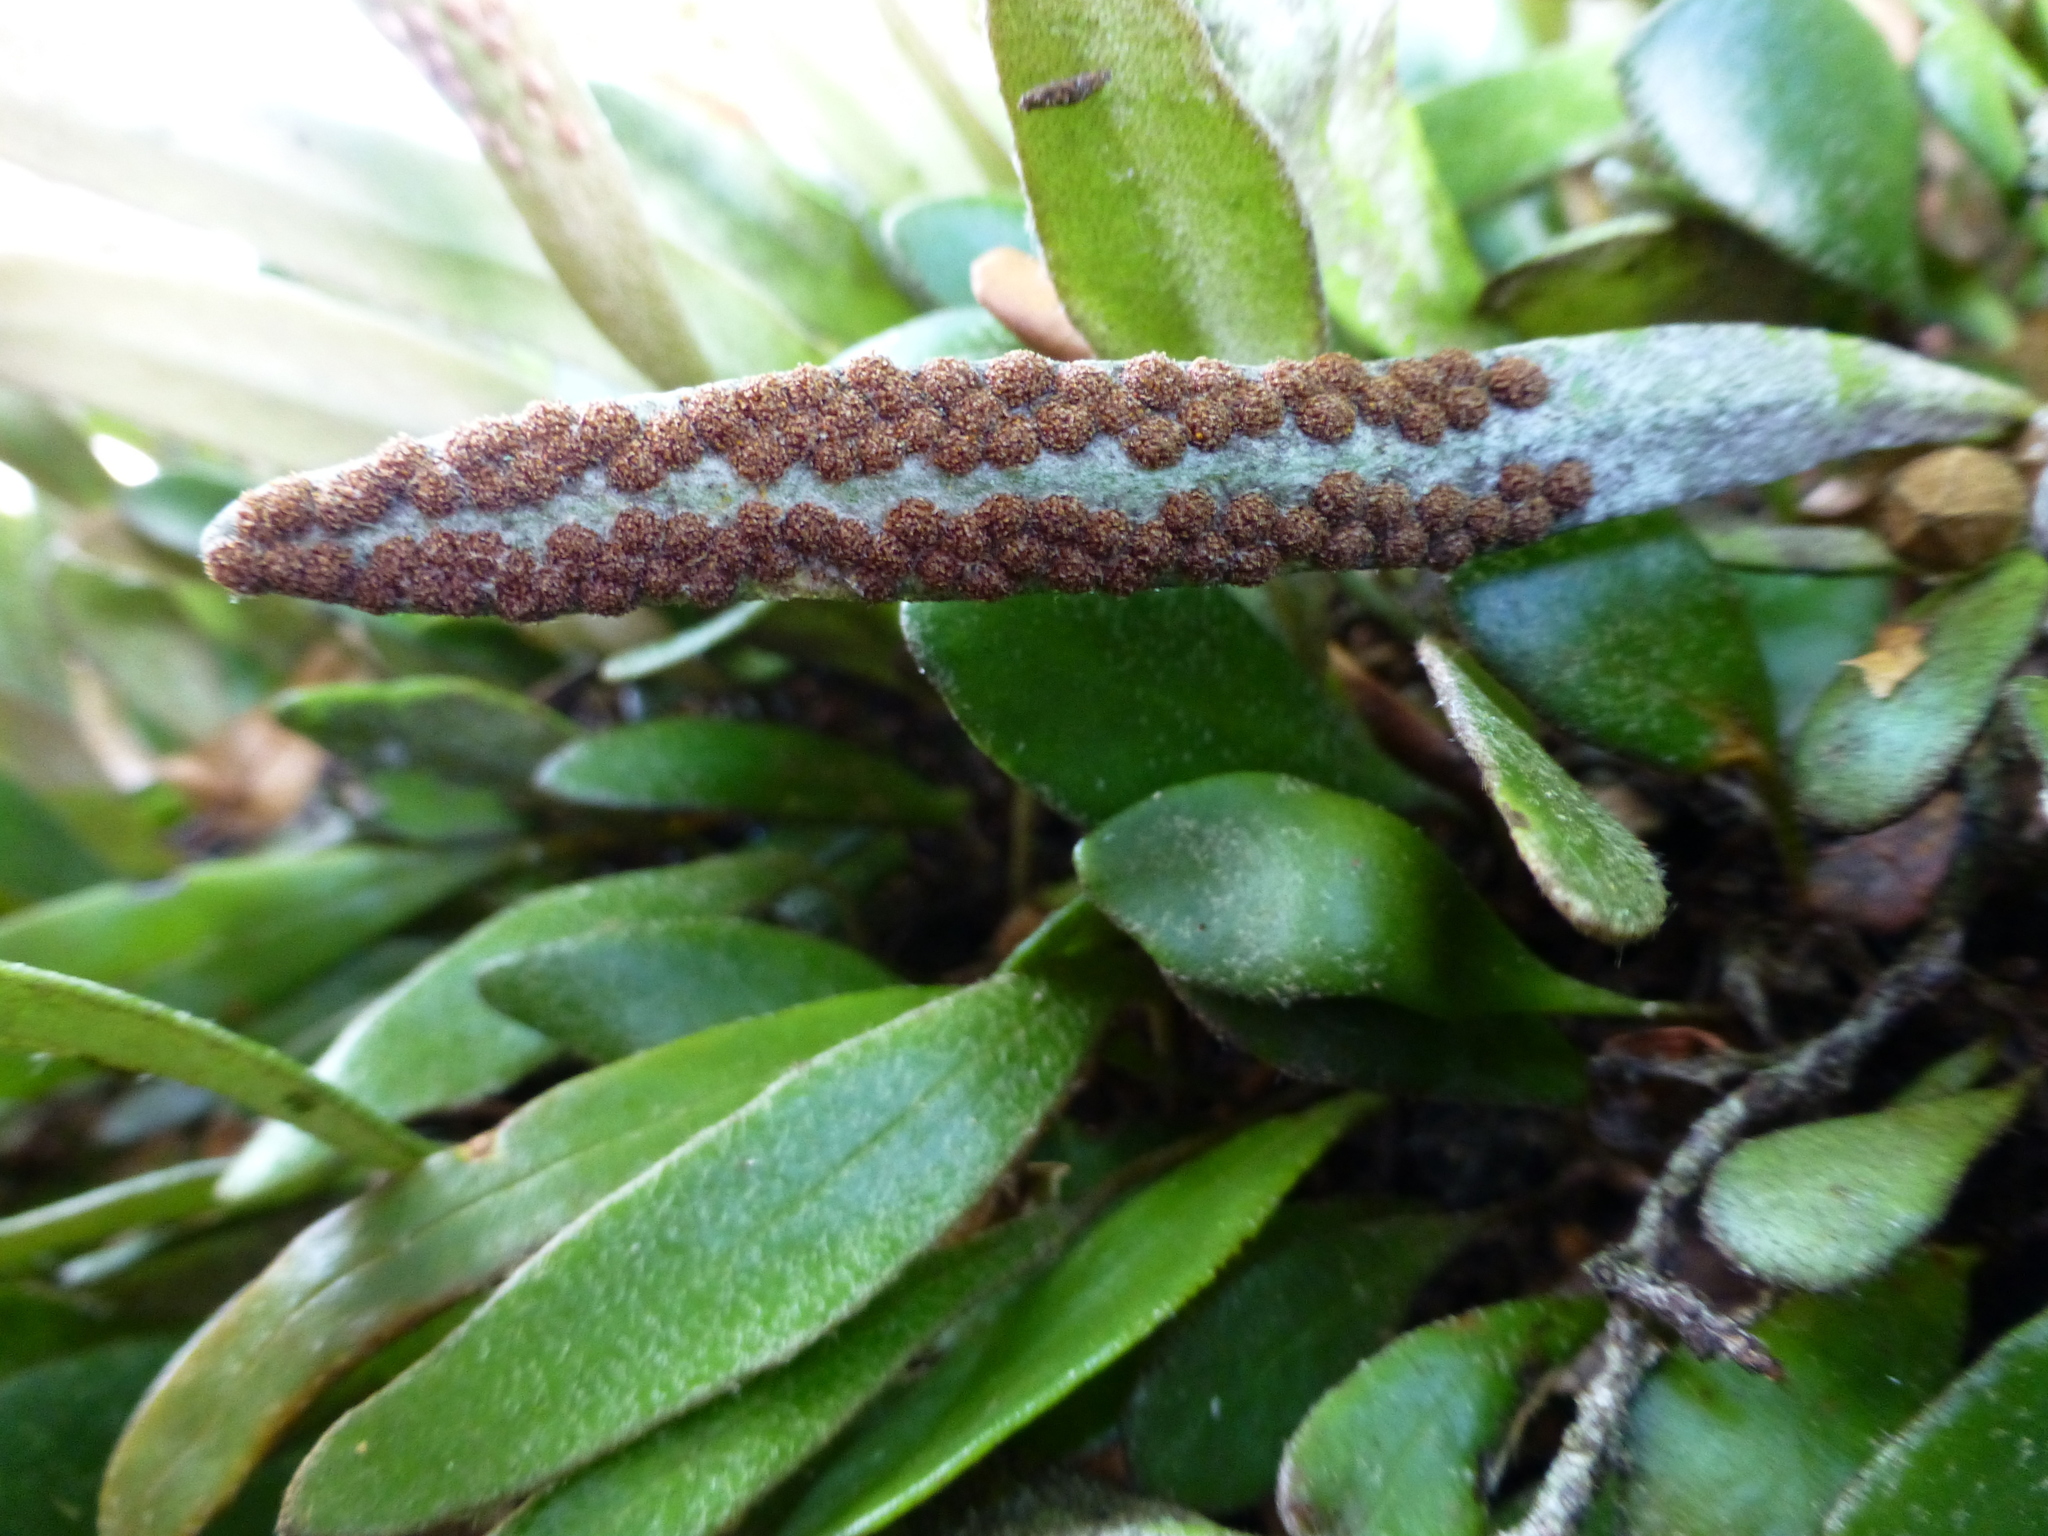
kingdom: Plantae
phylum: Tracheophyta
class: Polypodiopsida
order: Polypodiales
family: Polypodiaceae
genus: Pyrrosia
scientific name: Pyrrosia eleagnifolia
